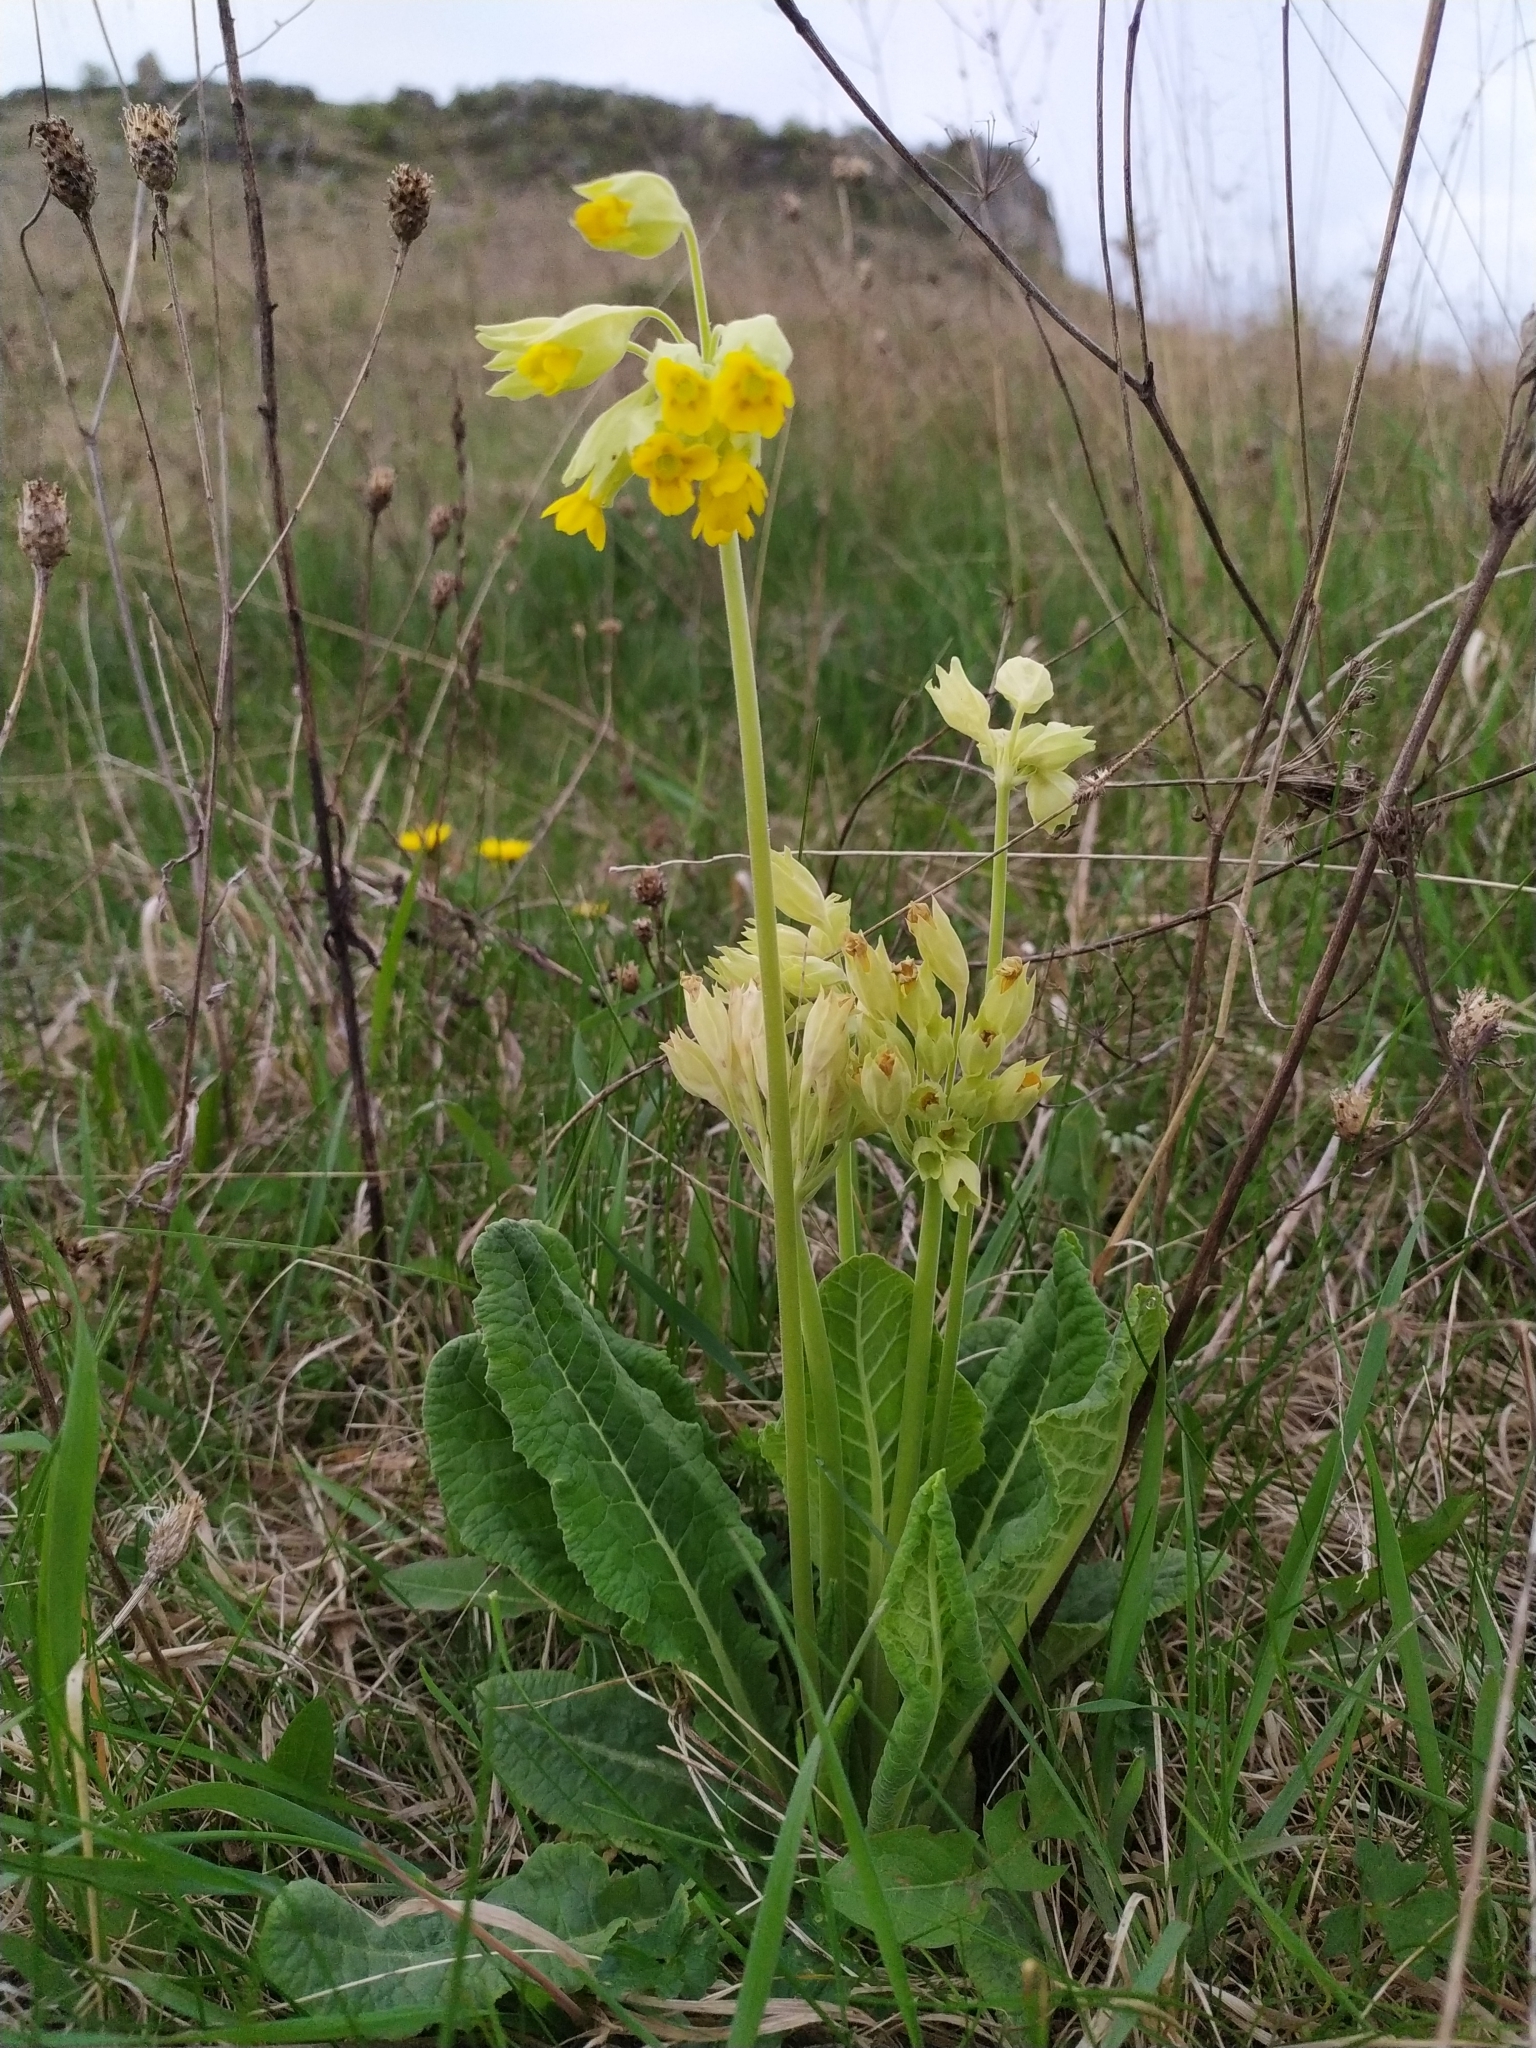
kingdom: Plantae
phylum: Tracheophyta
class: Magnoliopsida
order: Ericales
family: Primulaceae
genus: Primula
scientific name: Primula veris
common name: Cowslip
